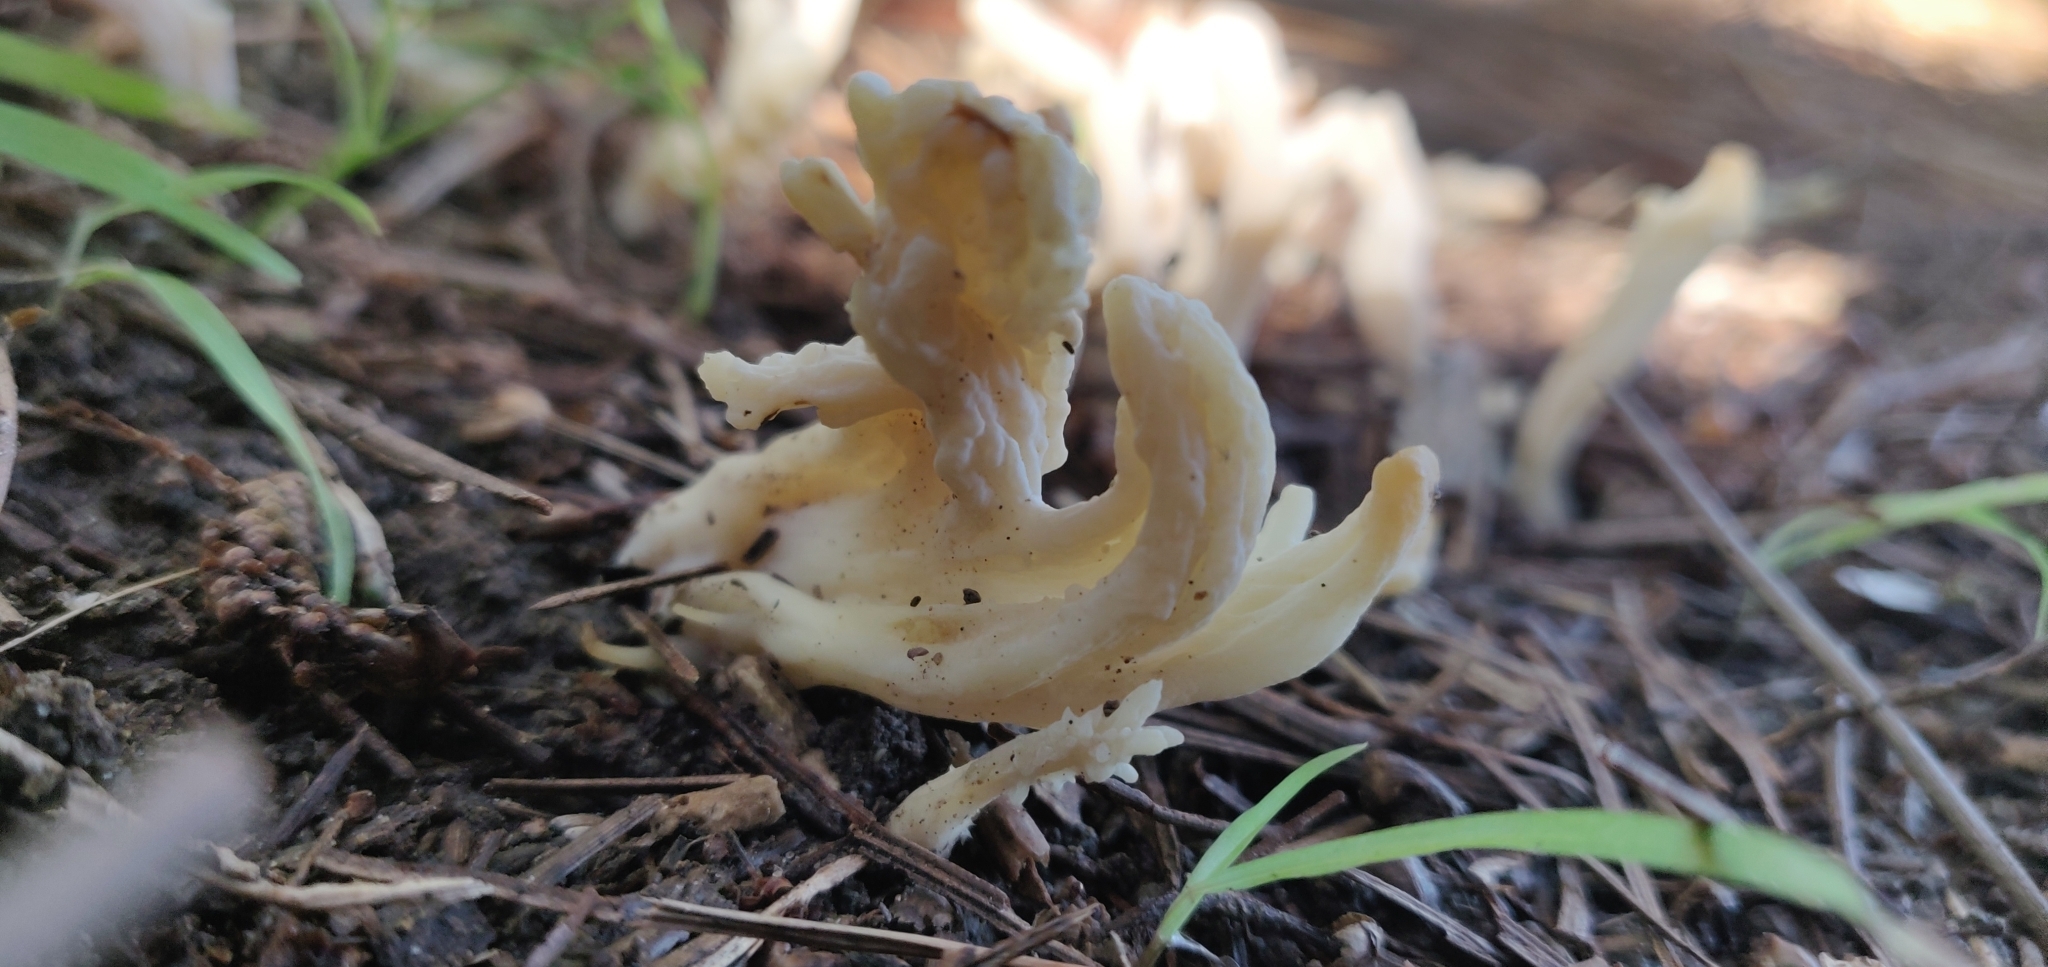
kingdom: Fungi
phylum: Basidiomycota
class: Agaricomycetes
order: Cantharellales
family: Hydnaceae
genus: Clavulina
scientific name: Clavulina rugosa
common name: Wrinkled club
